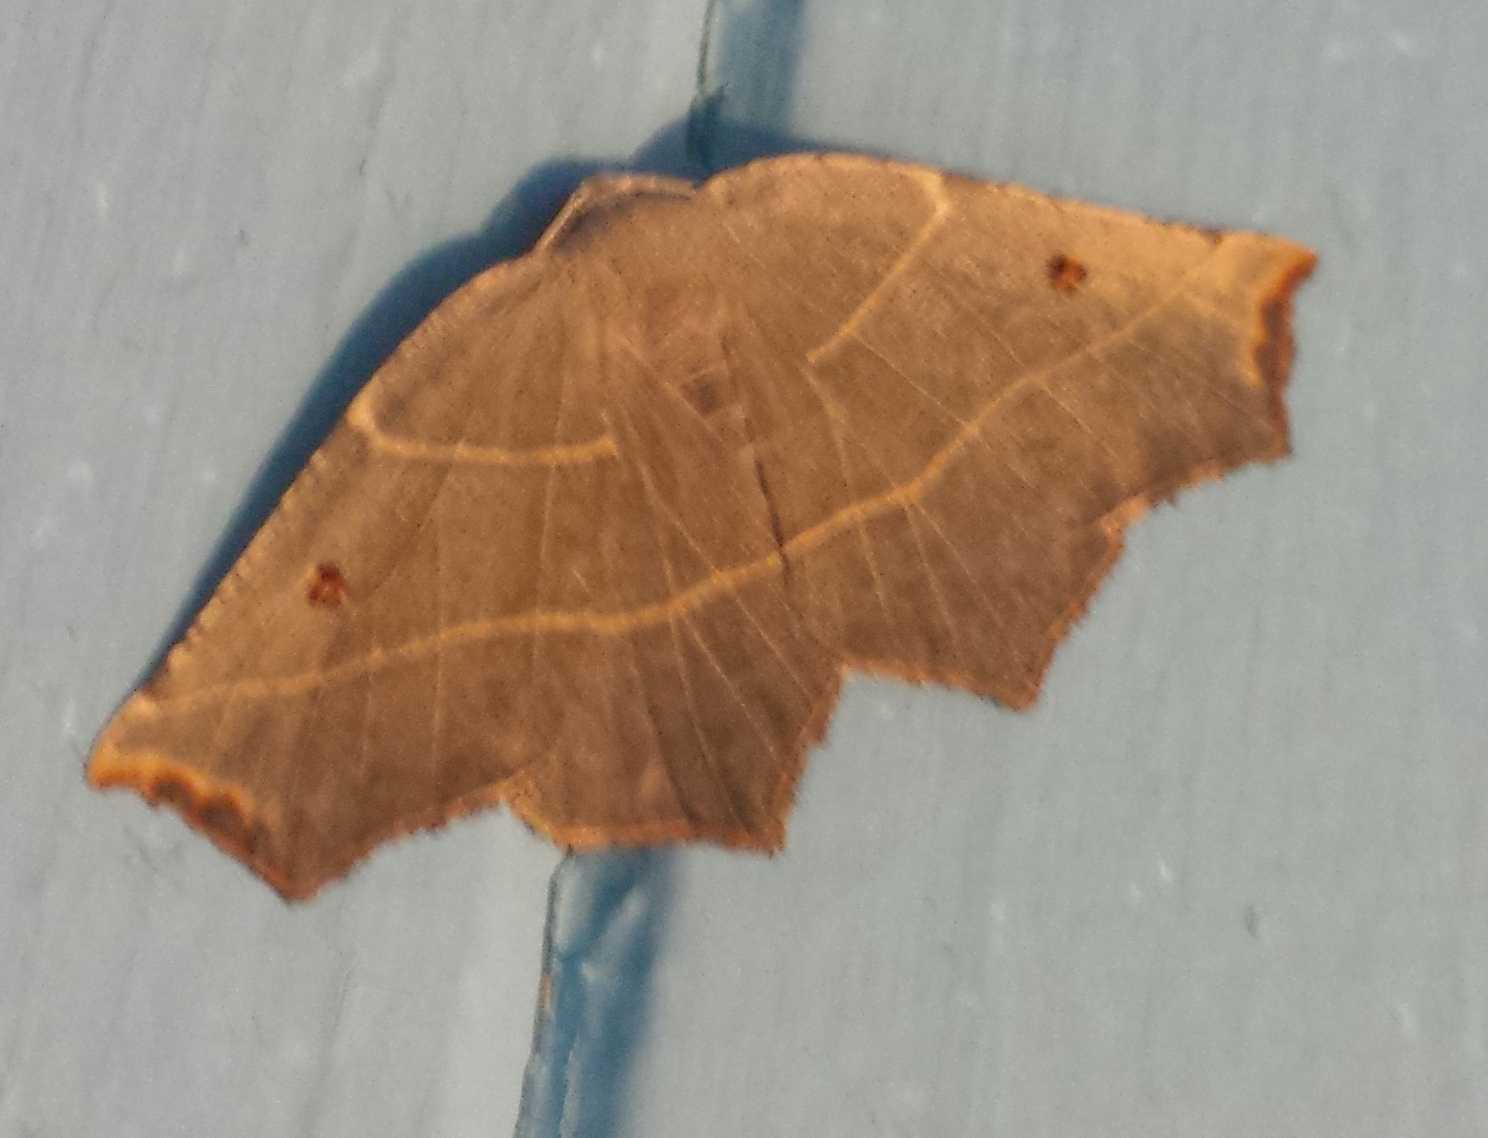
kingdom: Animalia
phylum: Arthropoda
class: Insecta
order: Lepidoptera
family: Geometridae
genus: Metanema
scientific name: Metanema inatomaria
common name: Pale metanema
